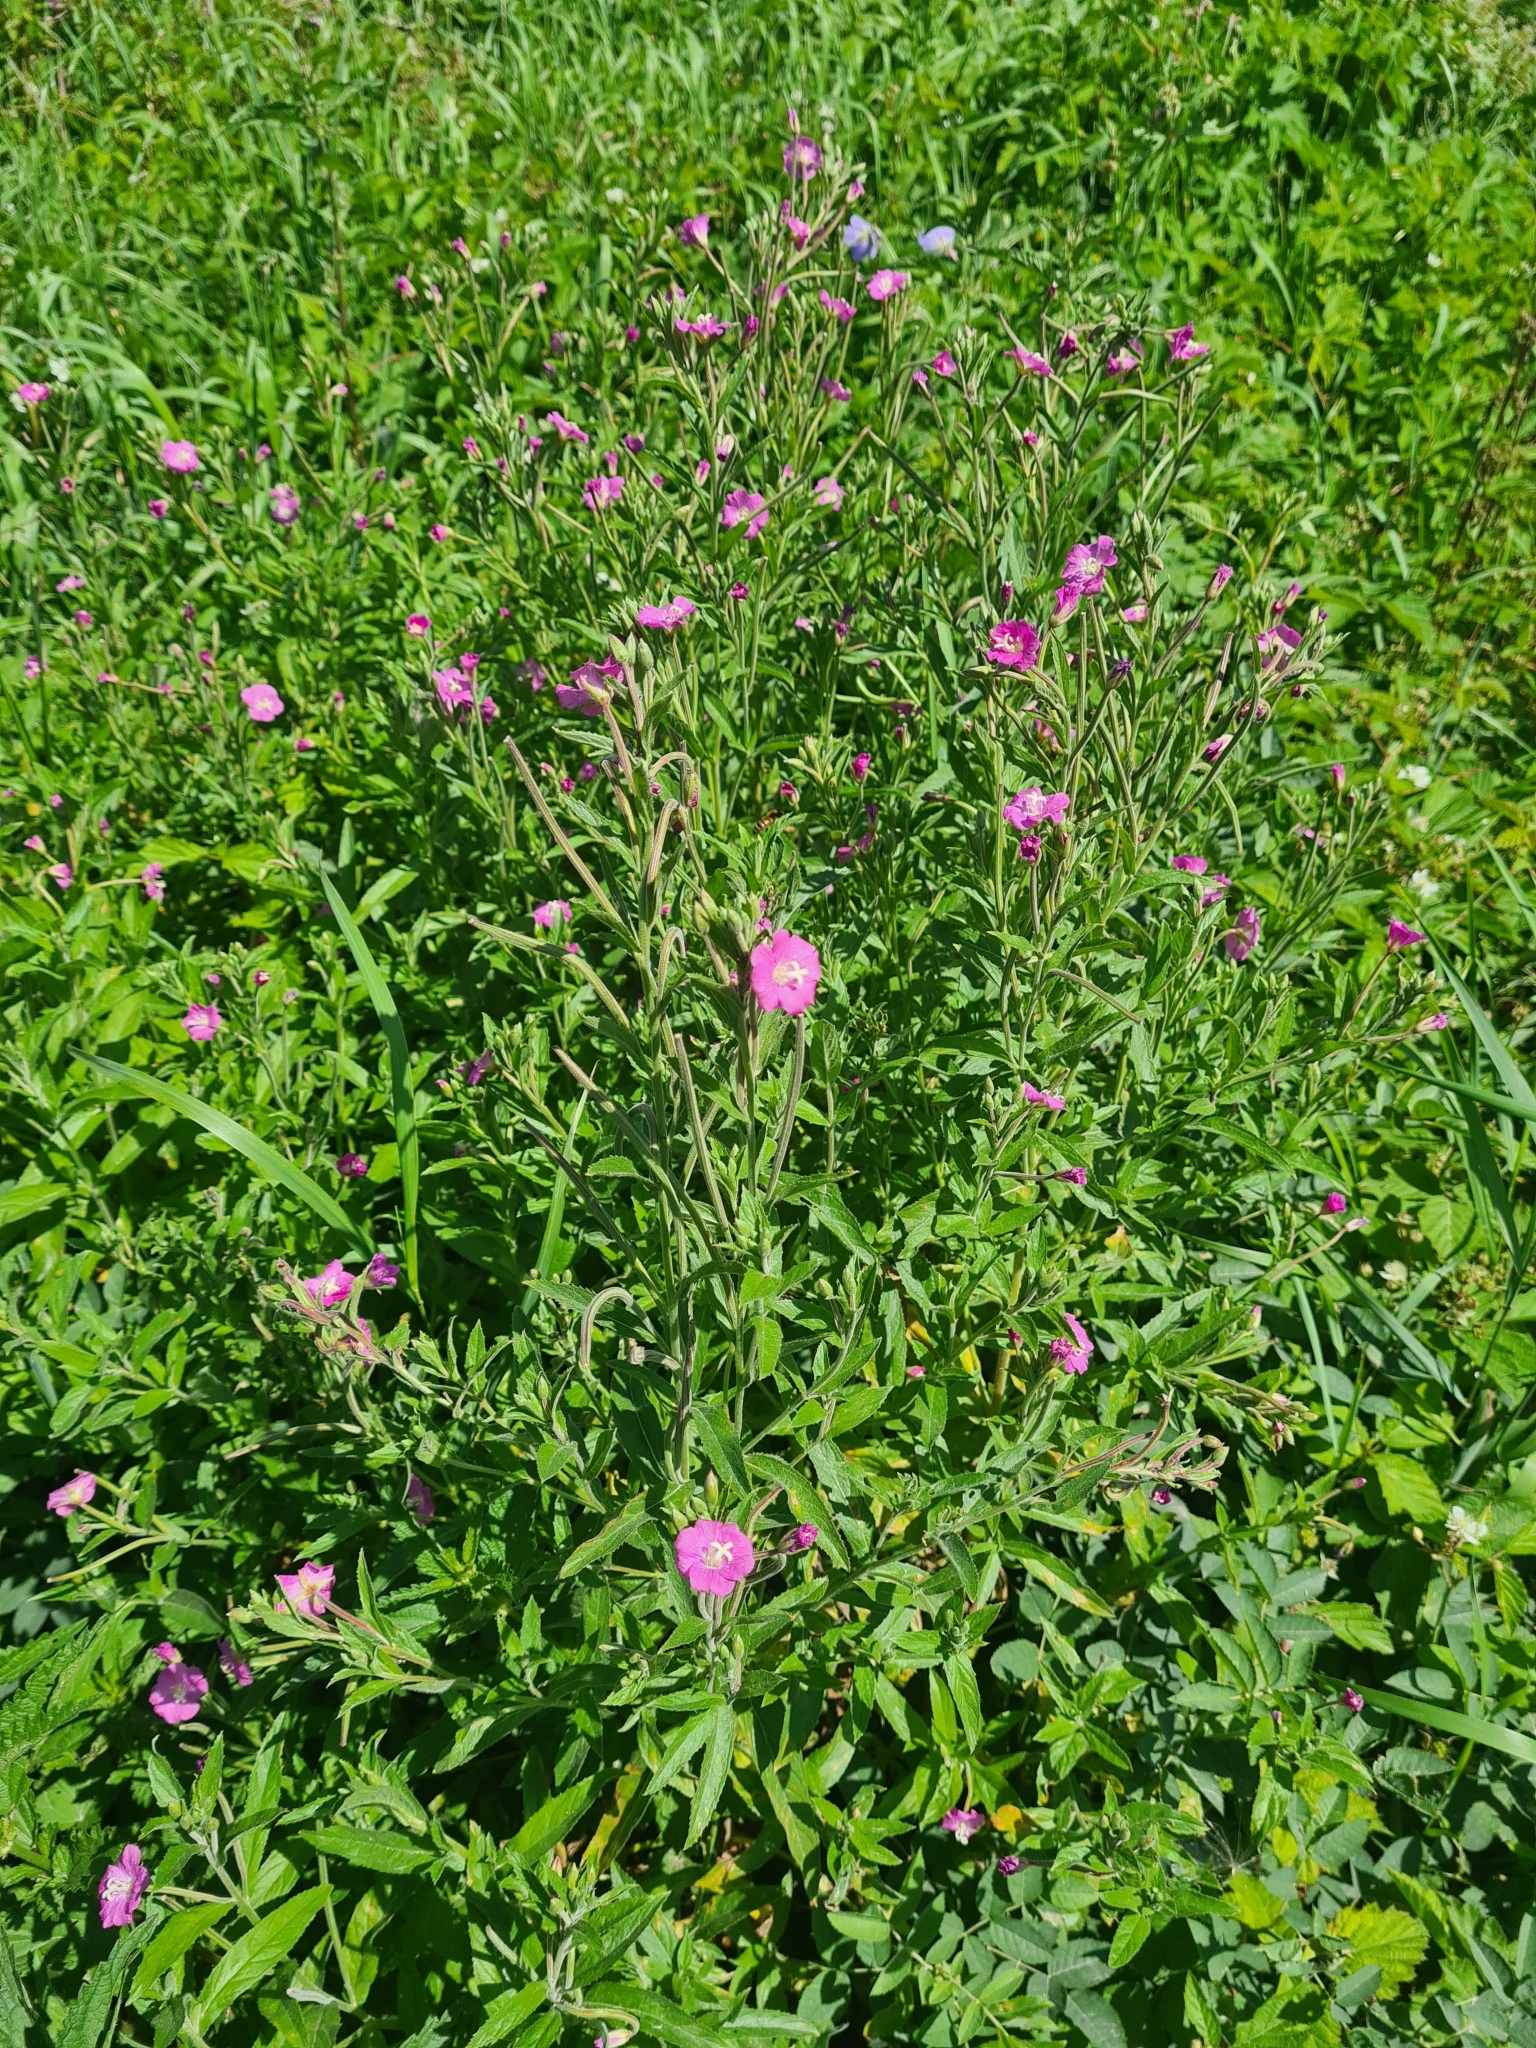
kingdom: Plantae
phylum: Tracheophyta
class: Magnoliopsida
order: Myrtales
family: Onagraceae
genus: Epilobium
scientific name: Epilobium hirsutum
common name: Great willowherb
